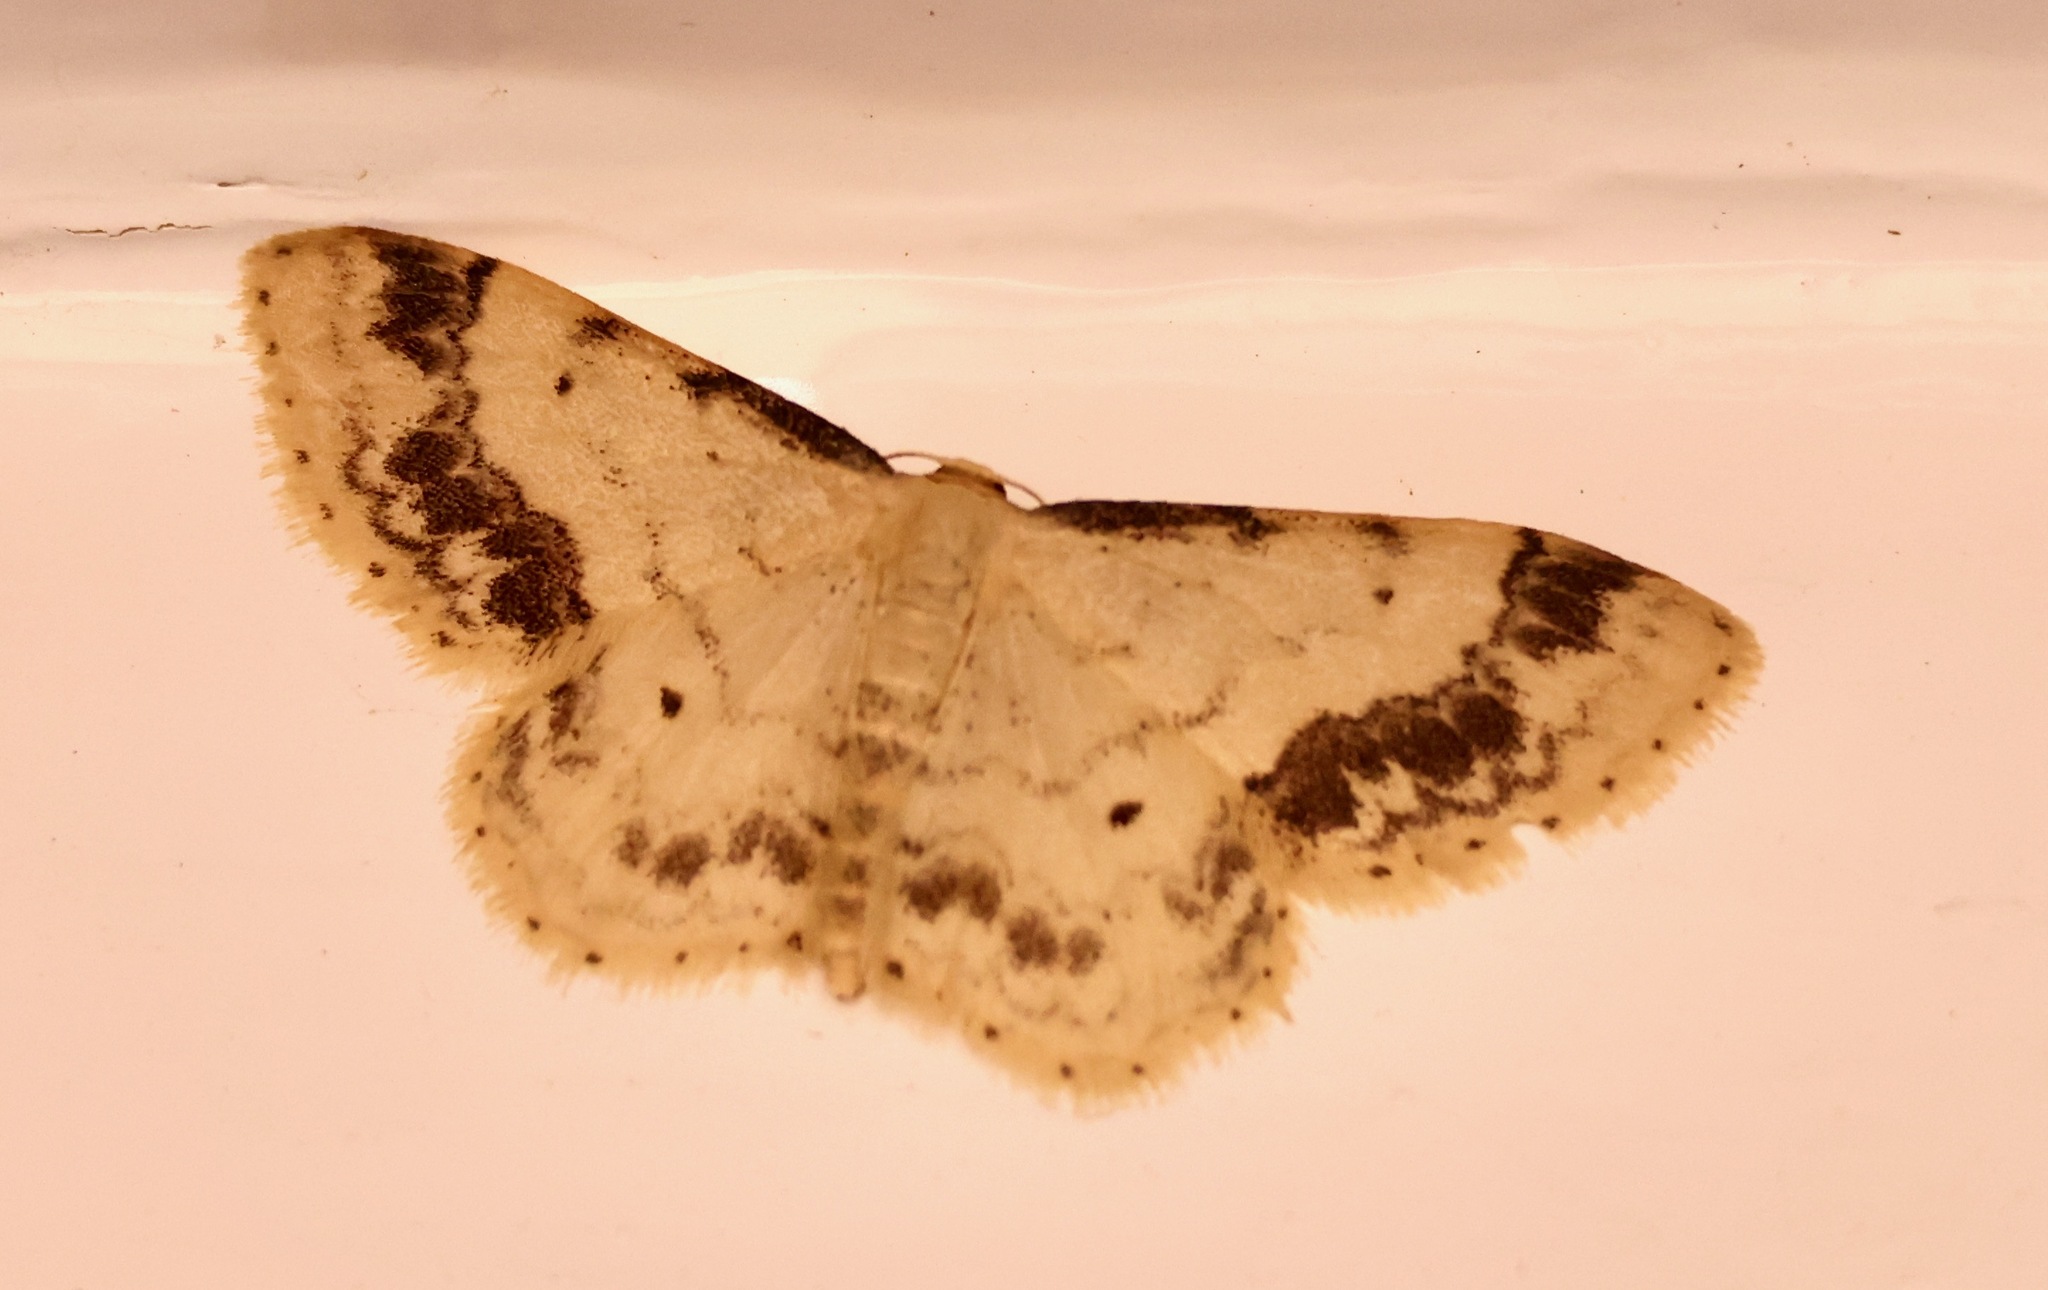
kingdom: Animalia
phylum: Arthropoda
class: Insecta
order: Lepidoptera
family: Geometridae
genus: Idaea
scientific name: Idaea trigeminata
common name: Treble brown spot
